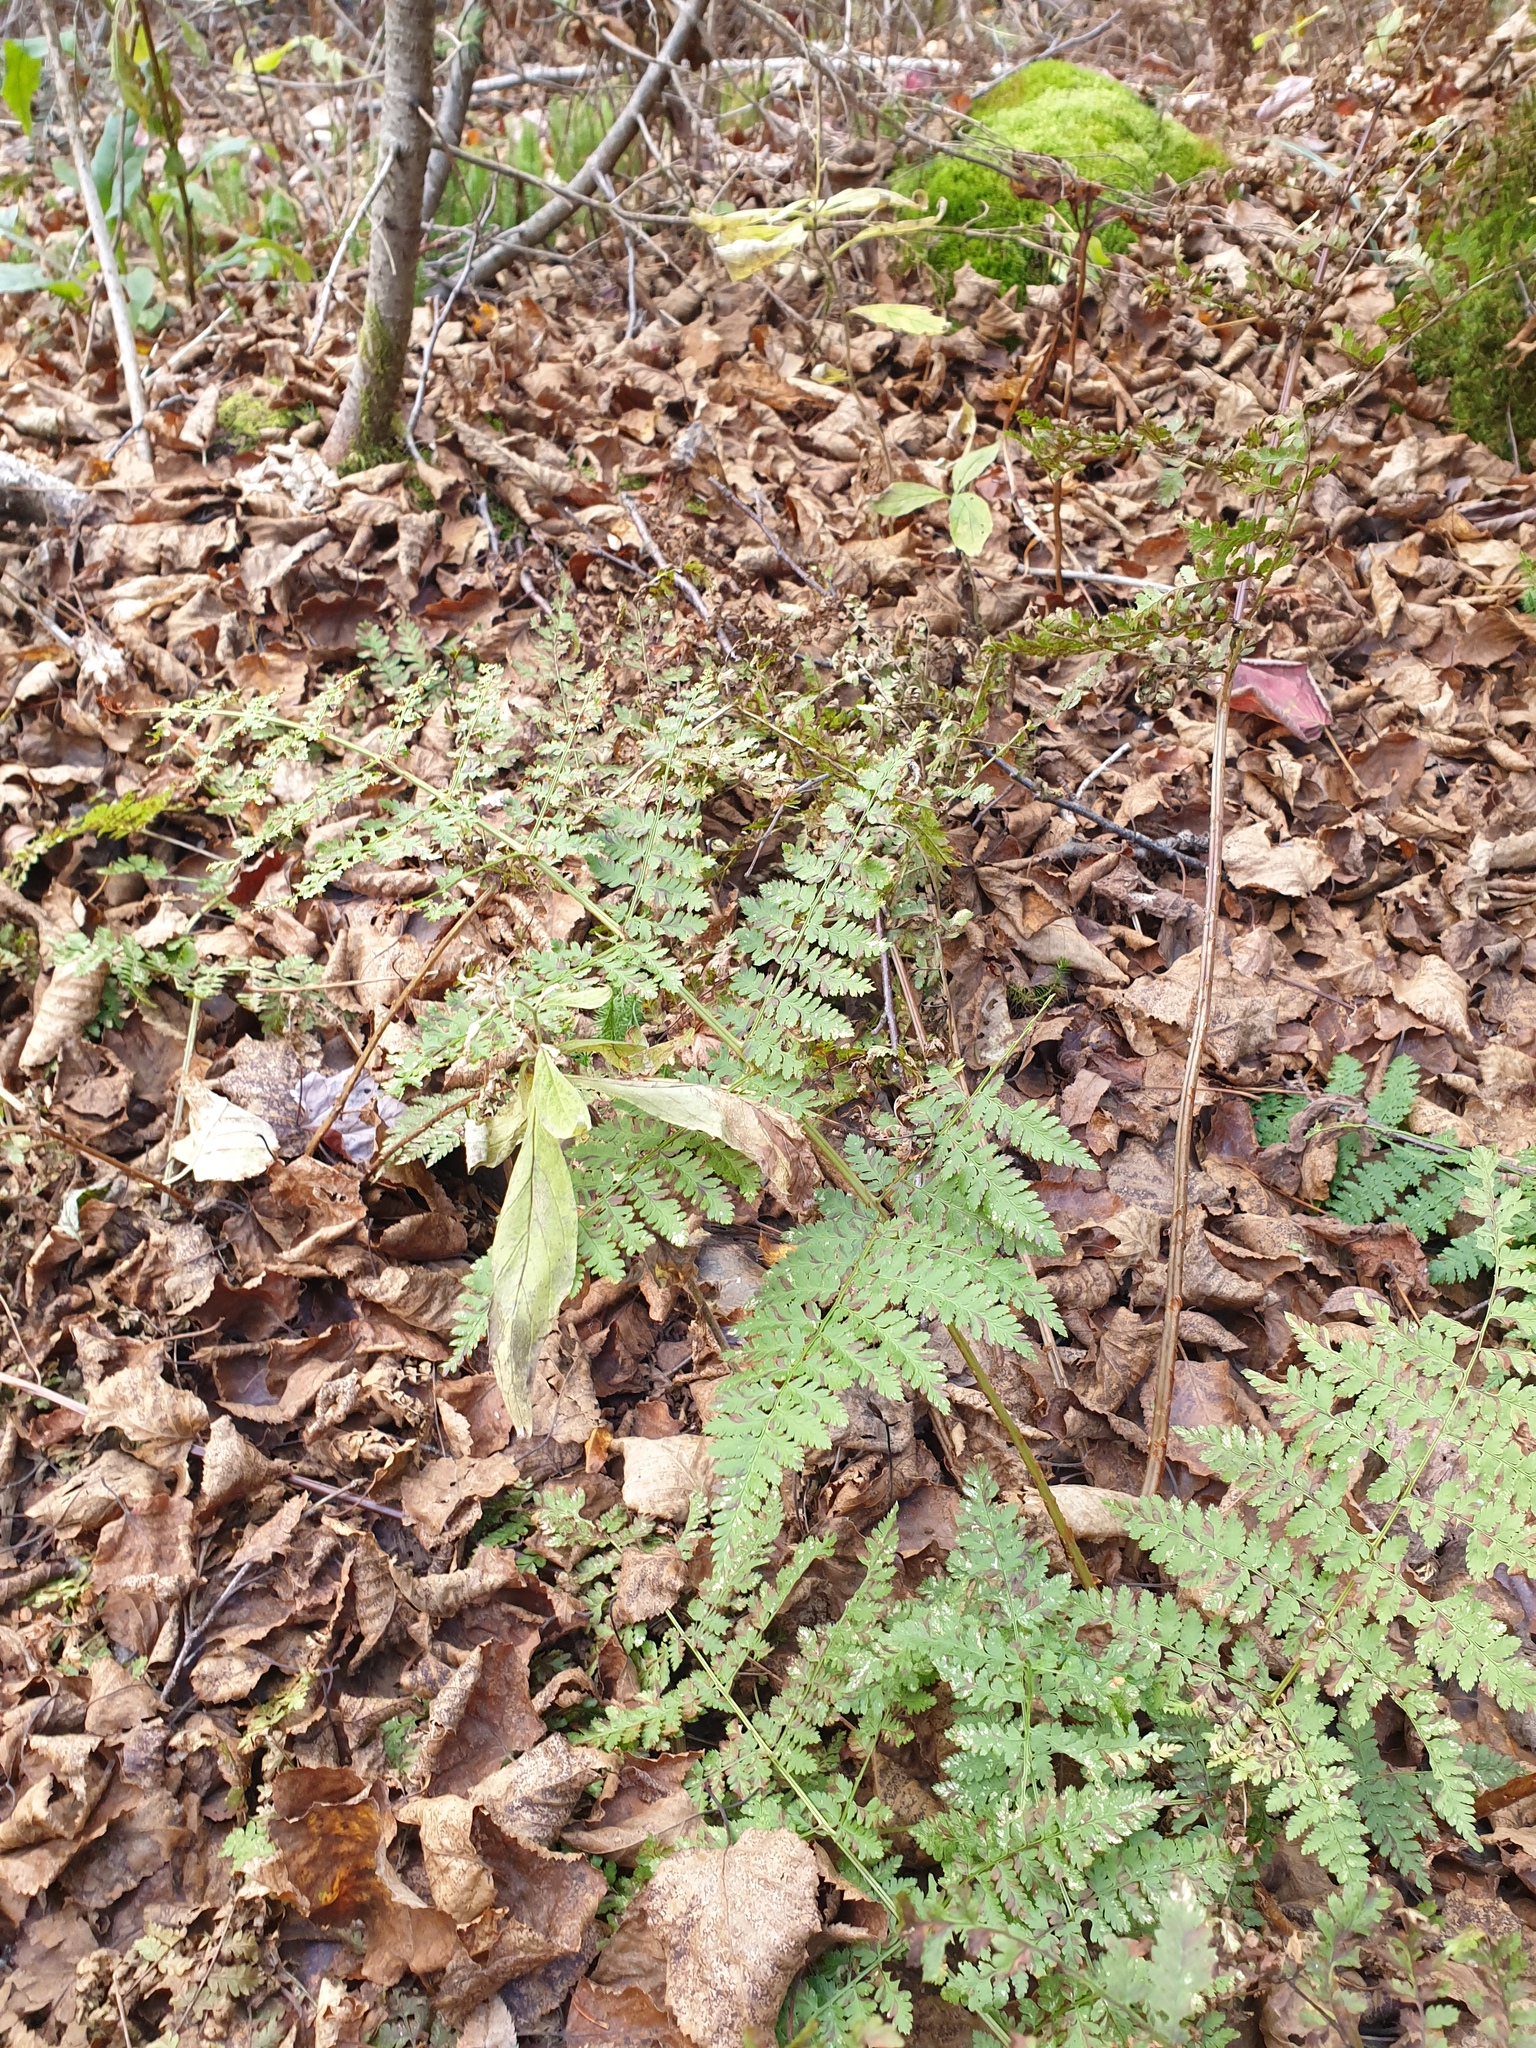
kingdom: Plantae
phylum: Tracheophyta
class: Polypodiopsida
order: Polypodiales
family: Dryopteridaceae
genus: Dryopteris
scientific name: Dryopteris campyloptera
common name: Mountain wood fern
